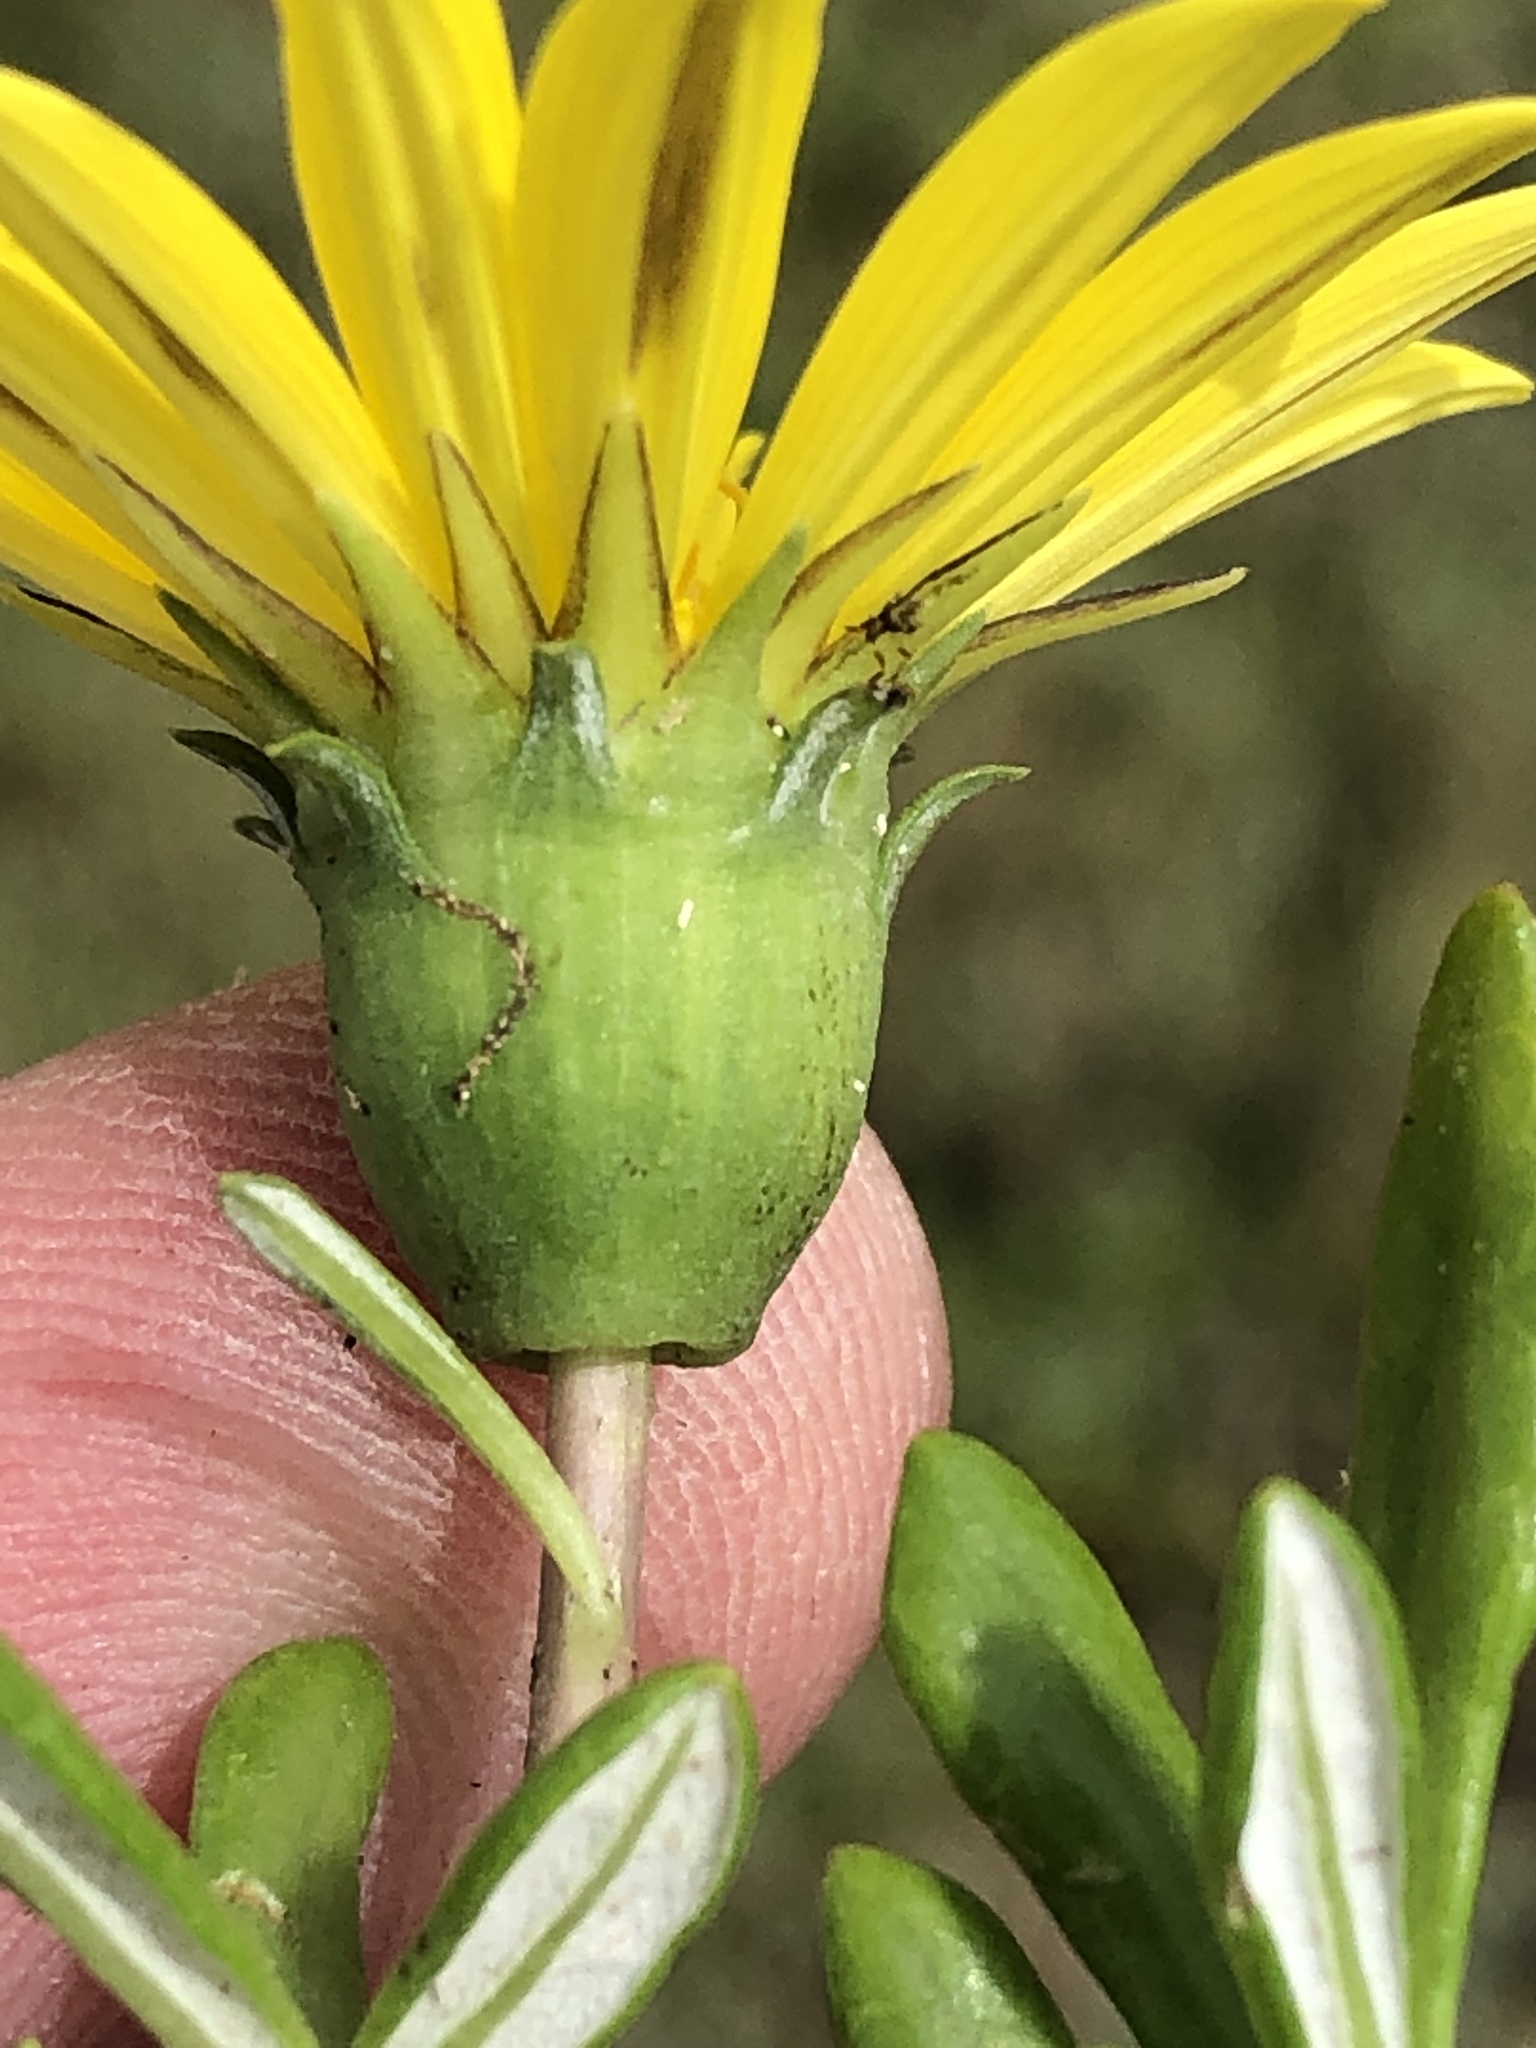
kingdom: Plantae
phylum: Tracheophyta
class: Magnoliopsida
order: Asterales
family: Asteraceae
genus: Gazania
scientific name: Gazania rigens
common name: Treasureflower
